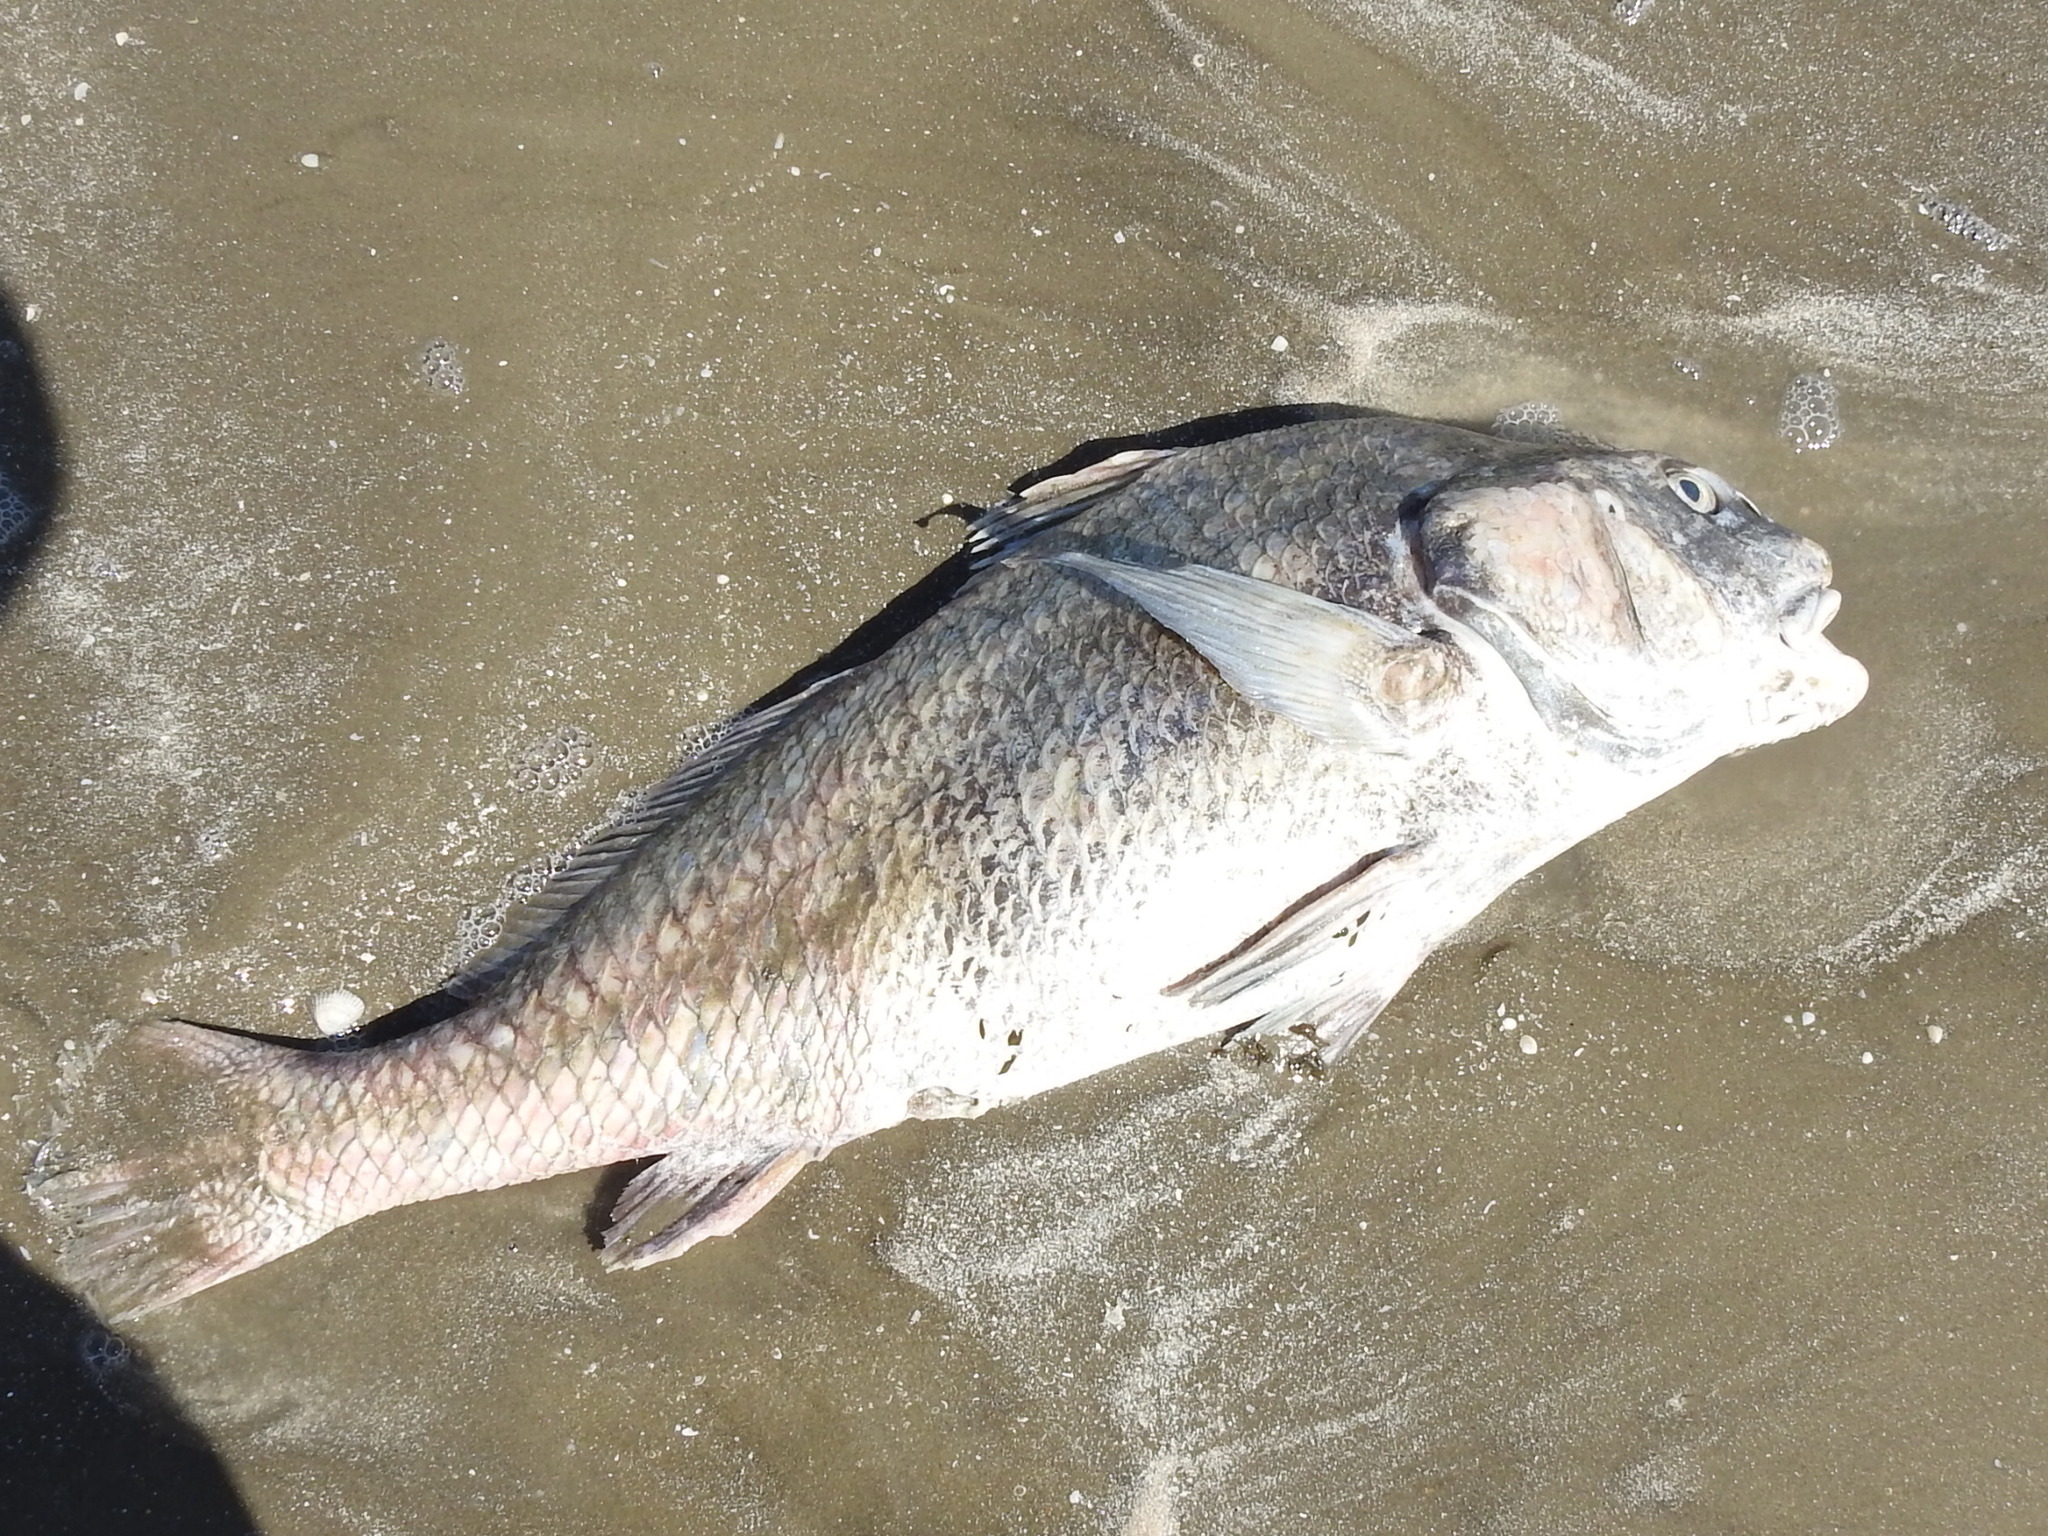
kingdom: Animalia
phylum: Chordata
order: Perciformes
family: Sciaenidae
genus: Pogonias
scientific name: Pogonias cromis
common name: Black drum
